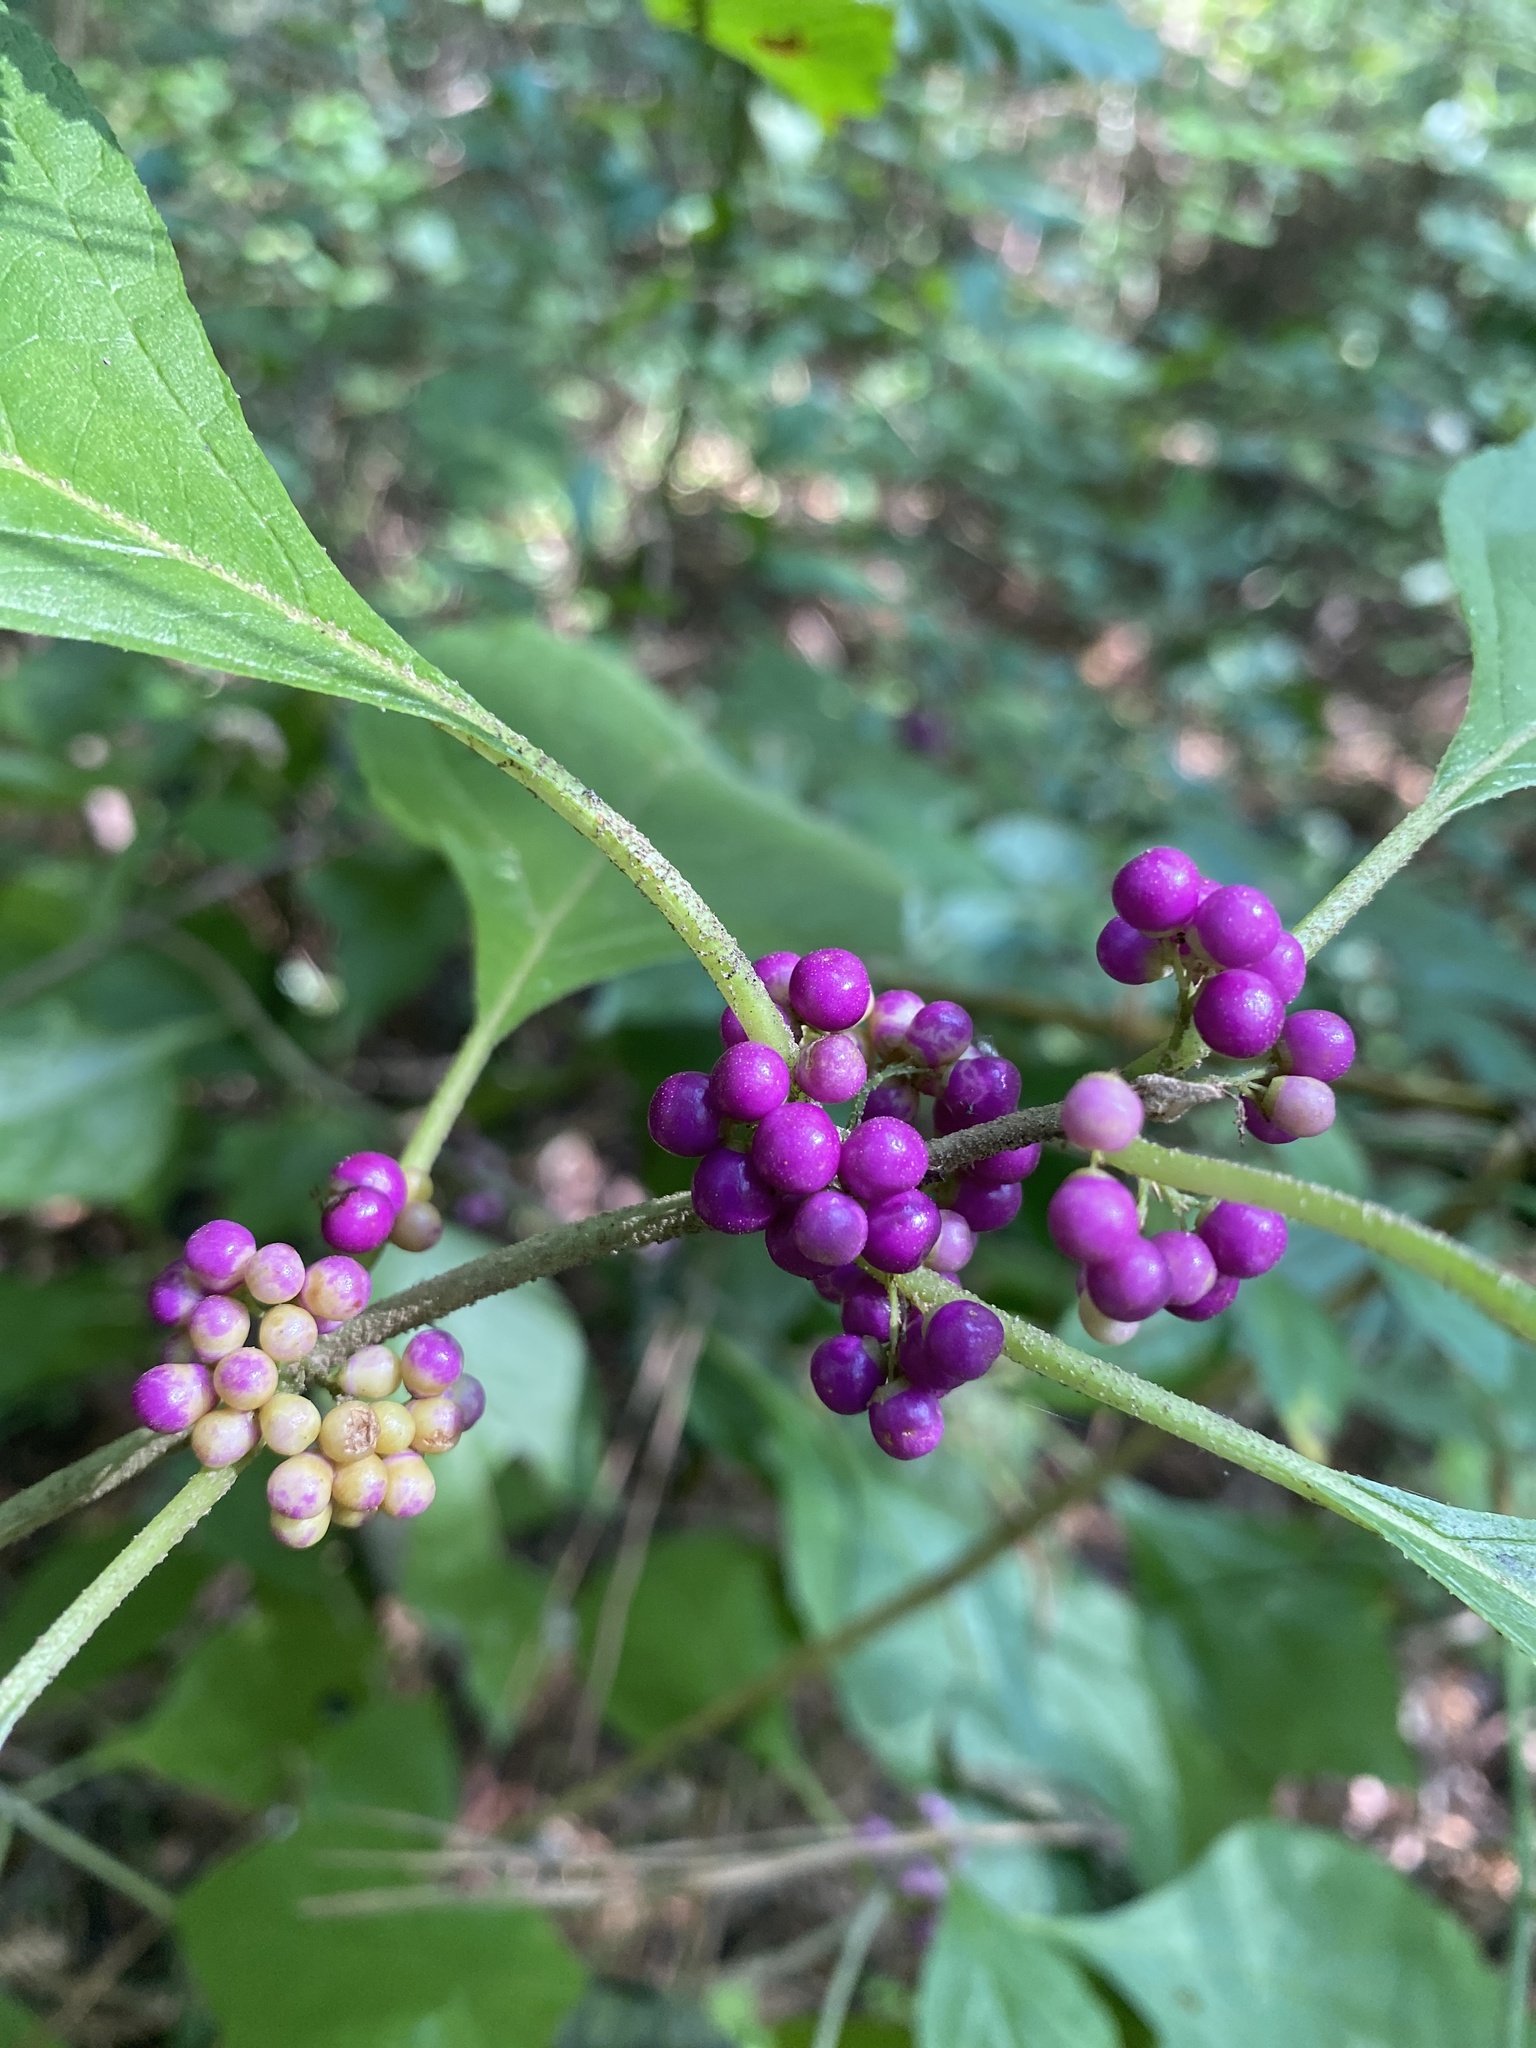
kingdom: Plantae
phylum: Tracheophyta
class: Magnoliopsida
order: Lamiales
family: Lamiaceae
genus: Callicarpa
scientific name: Callicarpa americana
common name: American beautyberry
